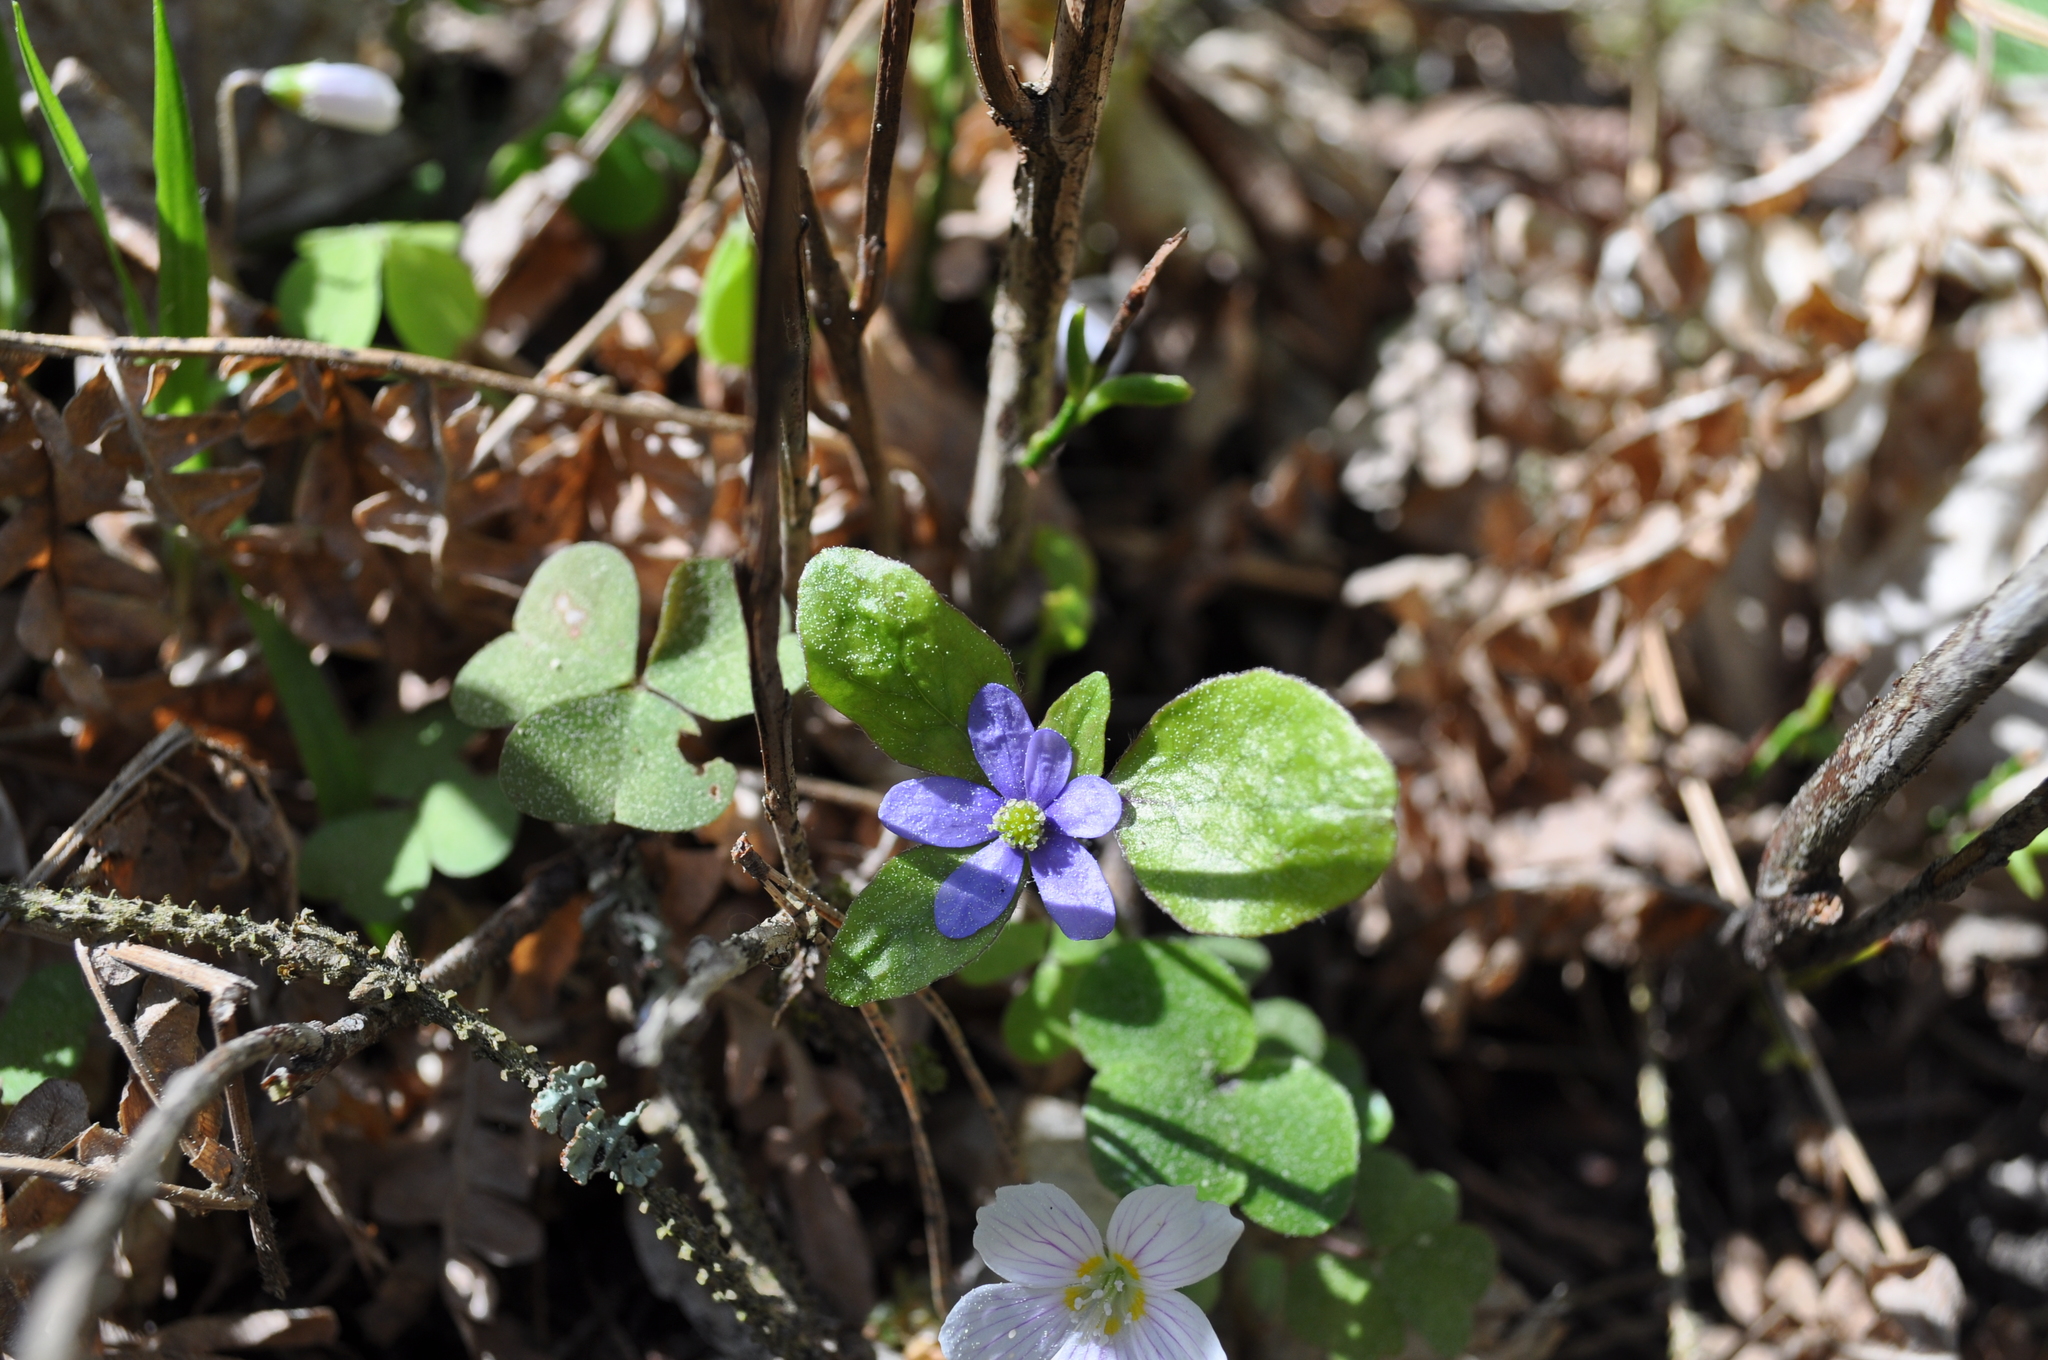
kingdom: Plantae
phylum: Tracheophyta
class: Magnoliopsida
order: Ranunculales
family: Ranunculaceae
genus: Hepatica
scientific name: Hepatica nobilis
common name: Liverleaf
